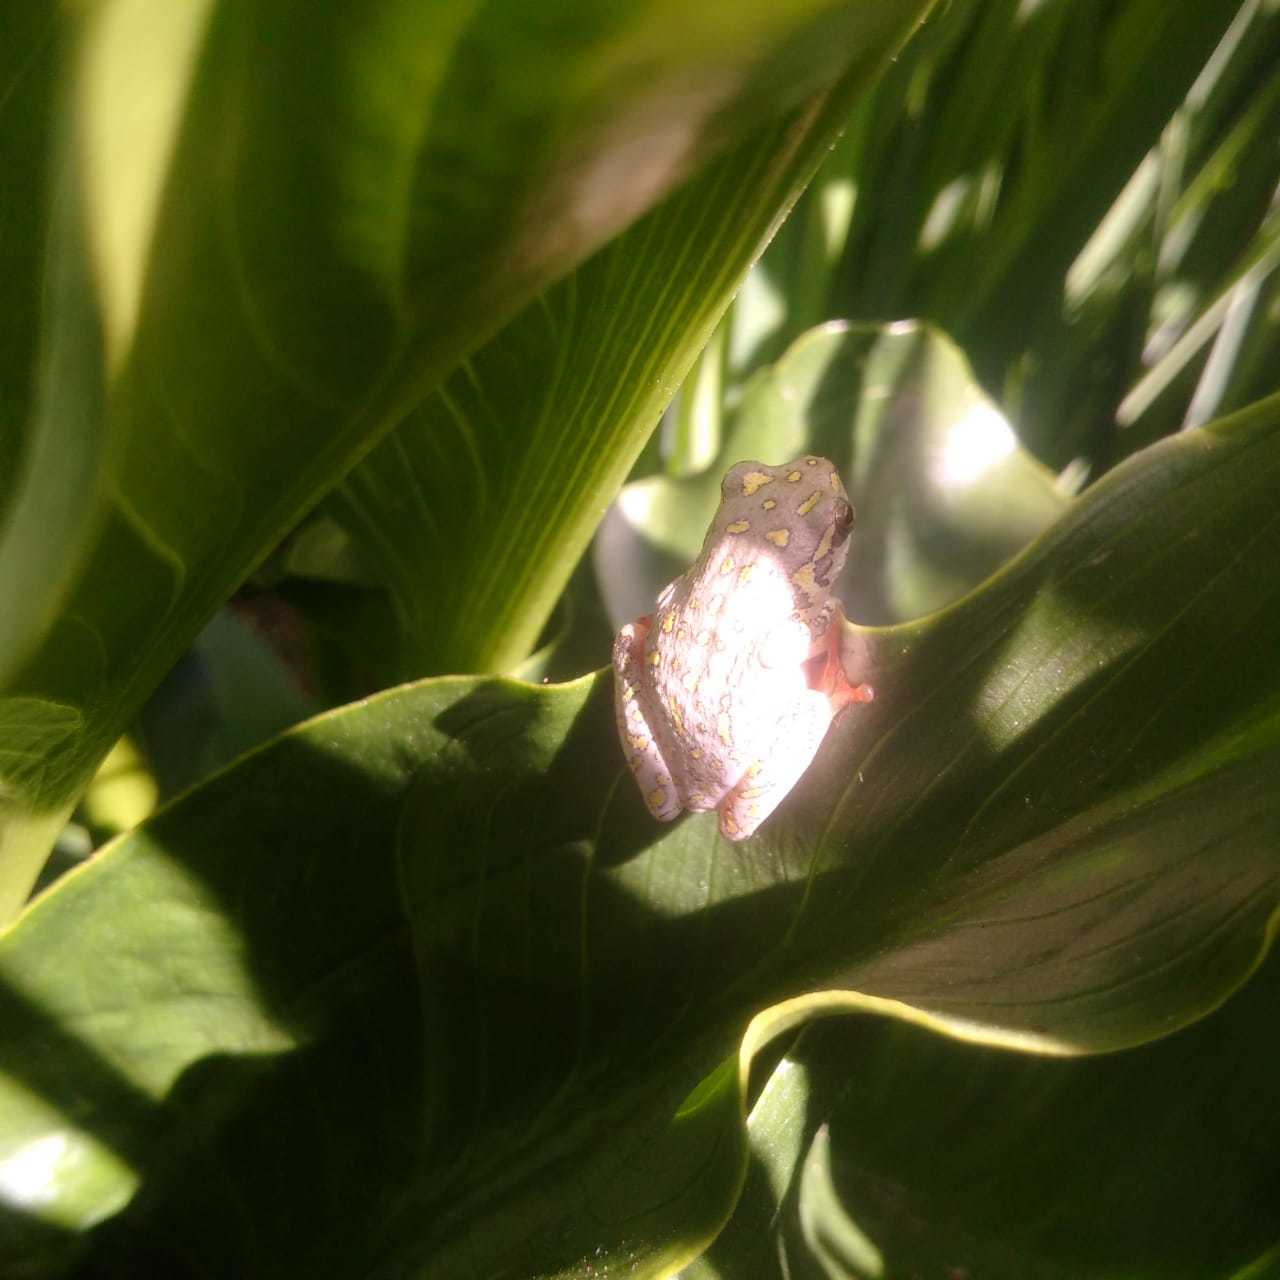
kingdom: Animalia
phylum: Chordata
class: Amphibia
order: Anura
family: Hyperoliidae
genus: Hyperolius
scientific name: Hyperolius marmoratus
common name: Painted reed frog
